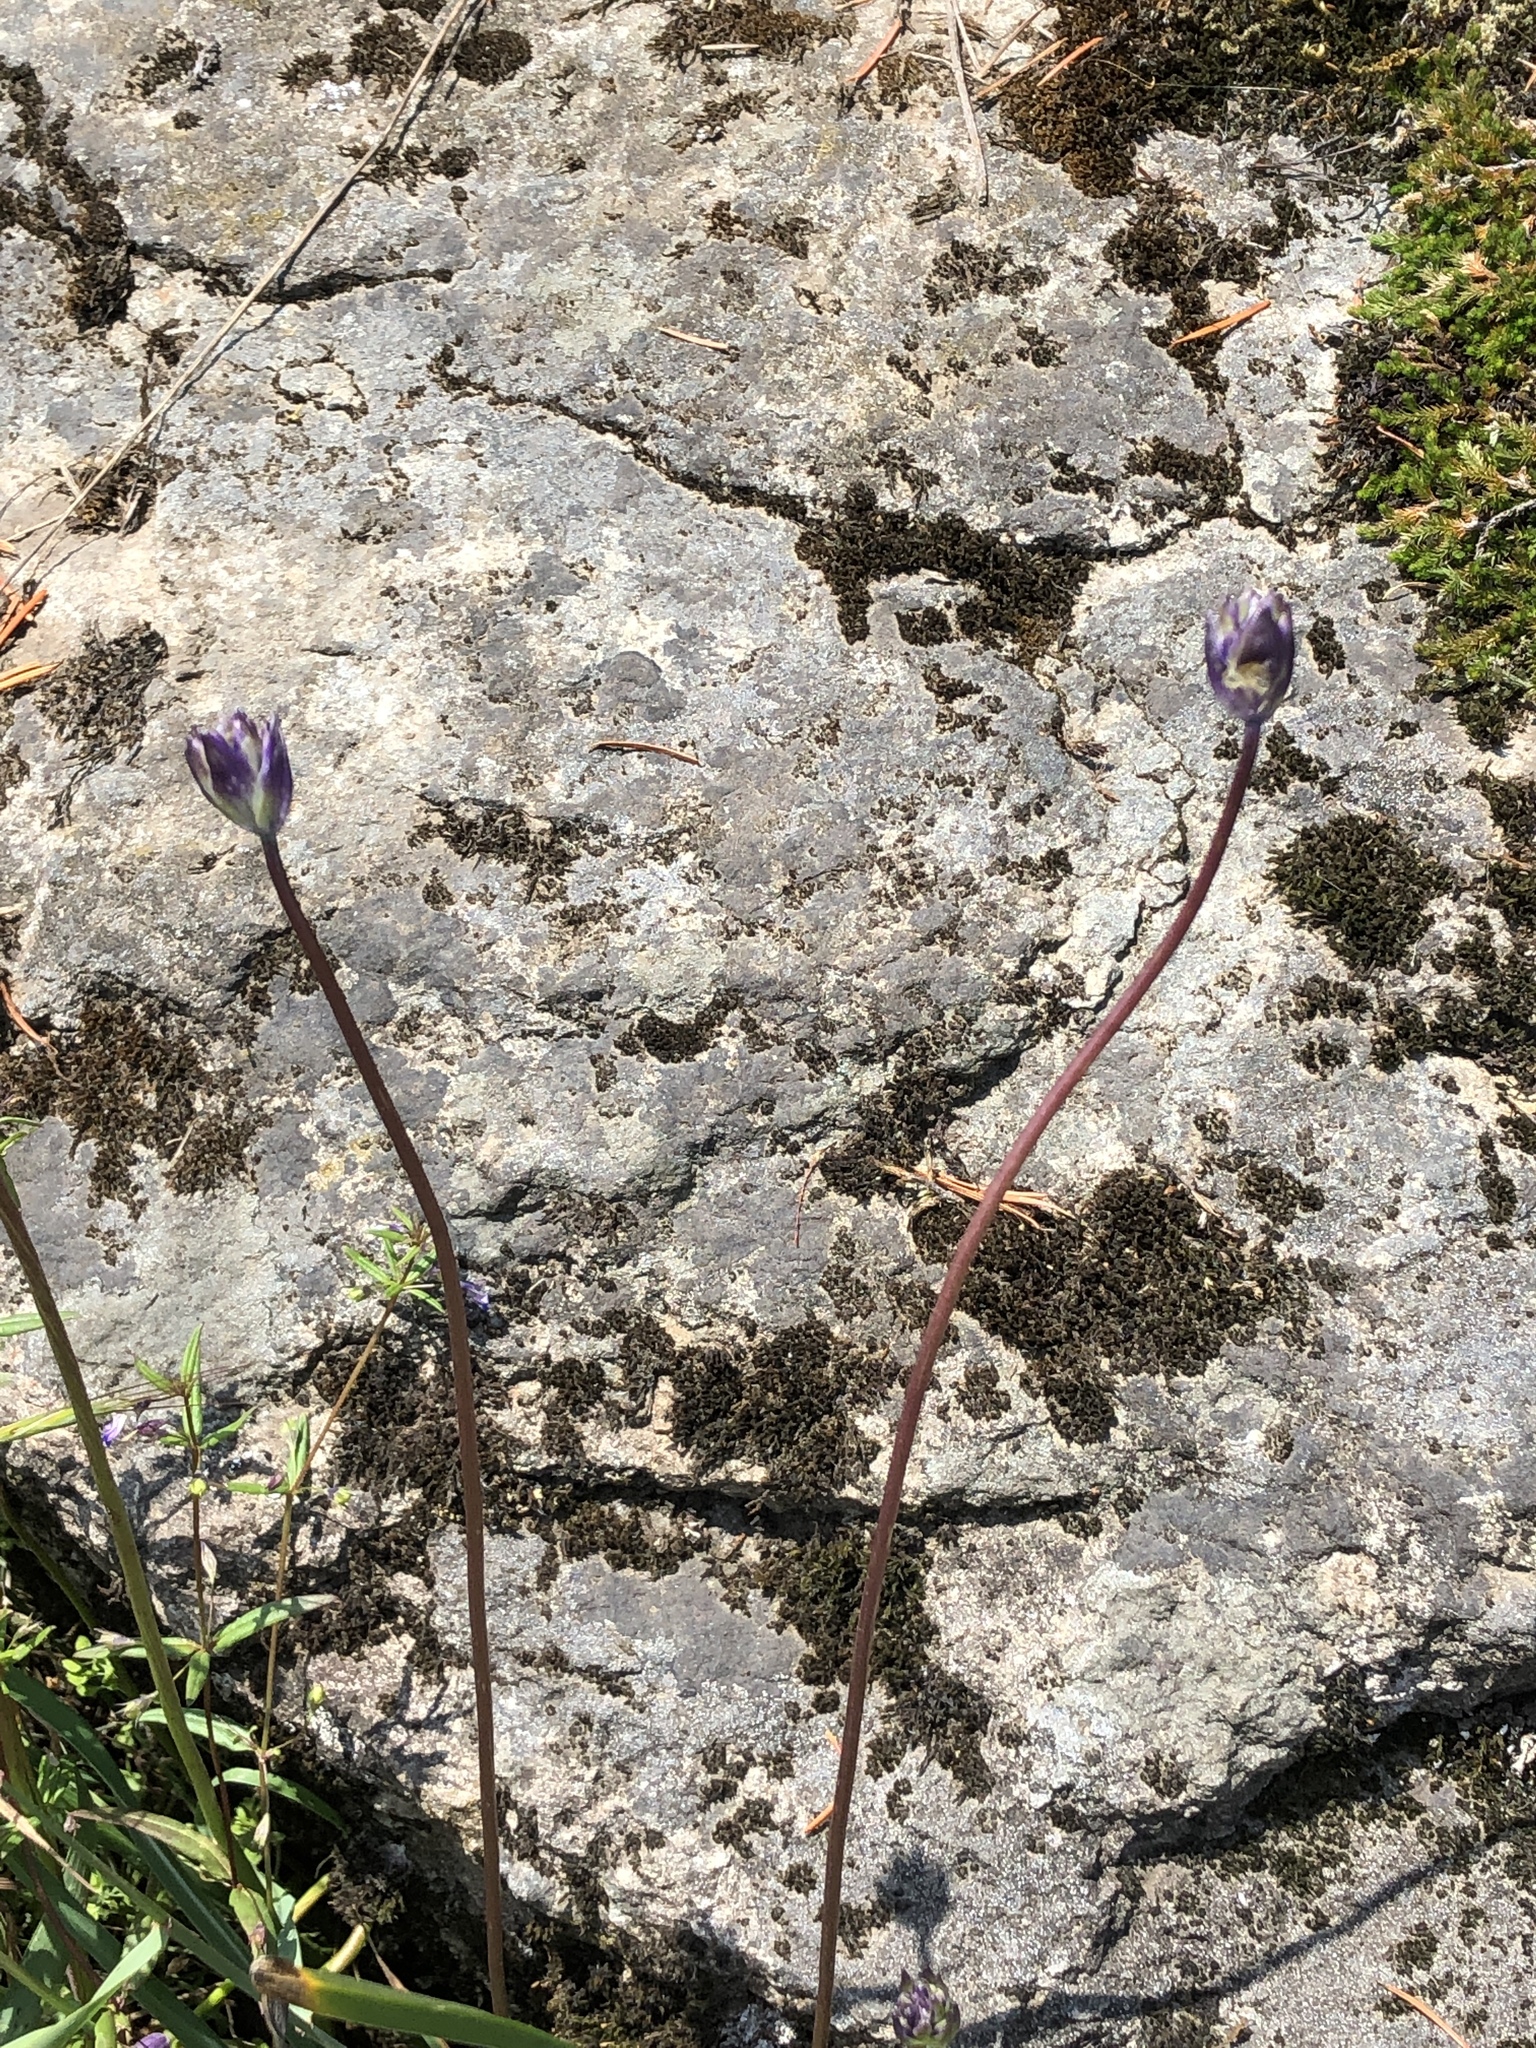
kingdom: Plantae
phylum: Tracheophyta
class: Liliopsida
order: Asparagales
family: Asparagaceae
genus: Dichelostemma
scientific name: Dichelostemma congestum
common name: Fork-tooth ookow
